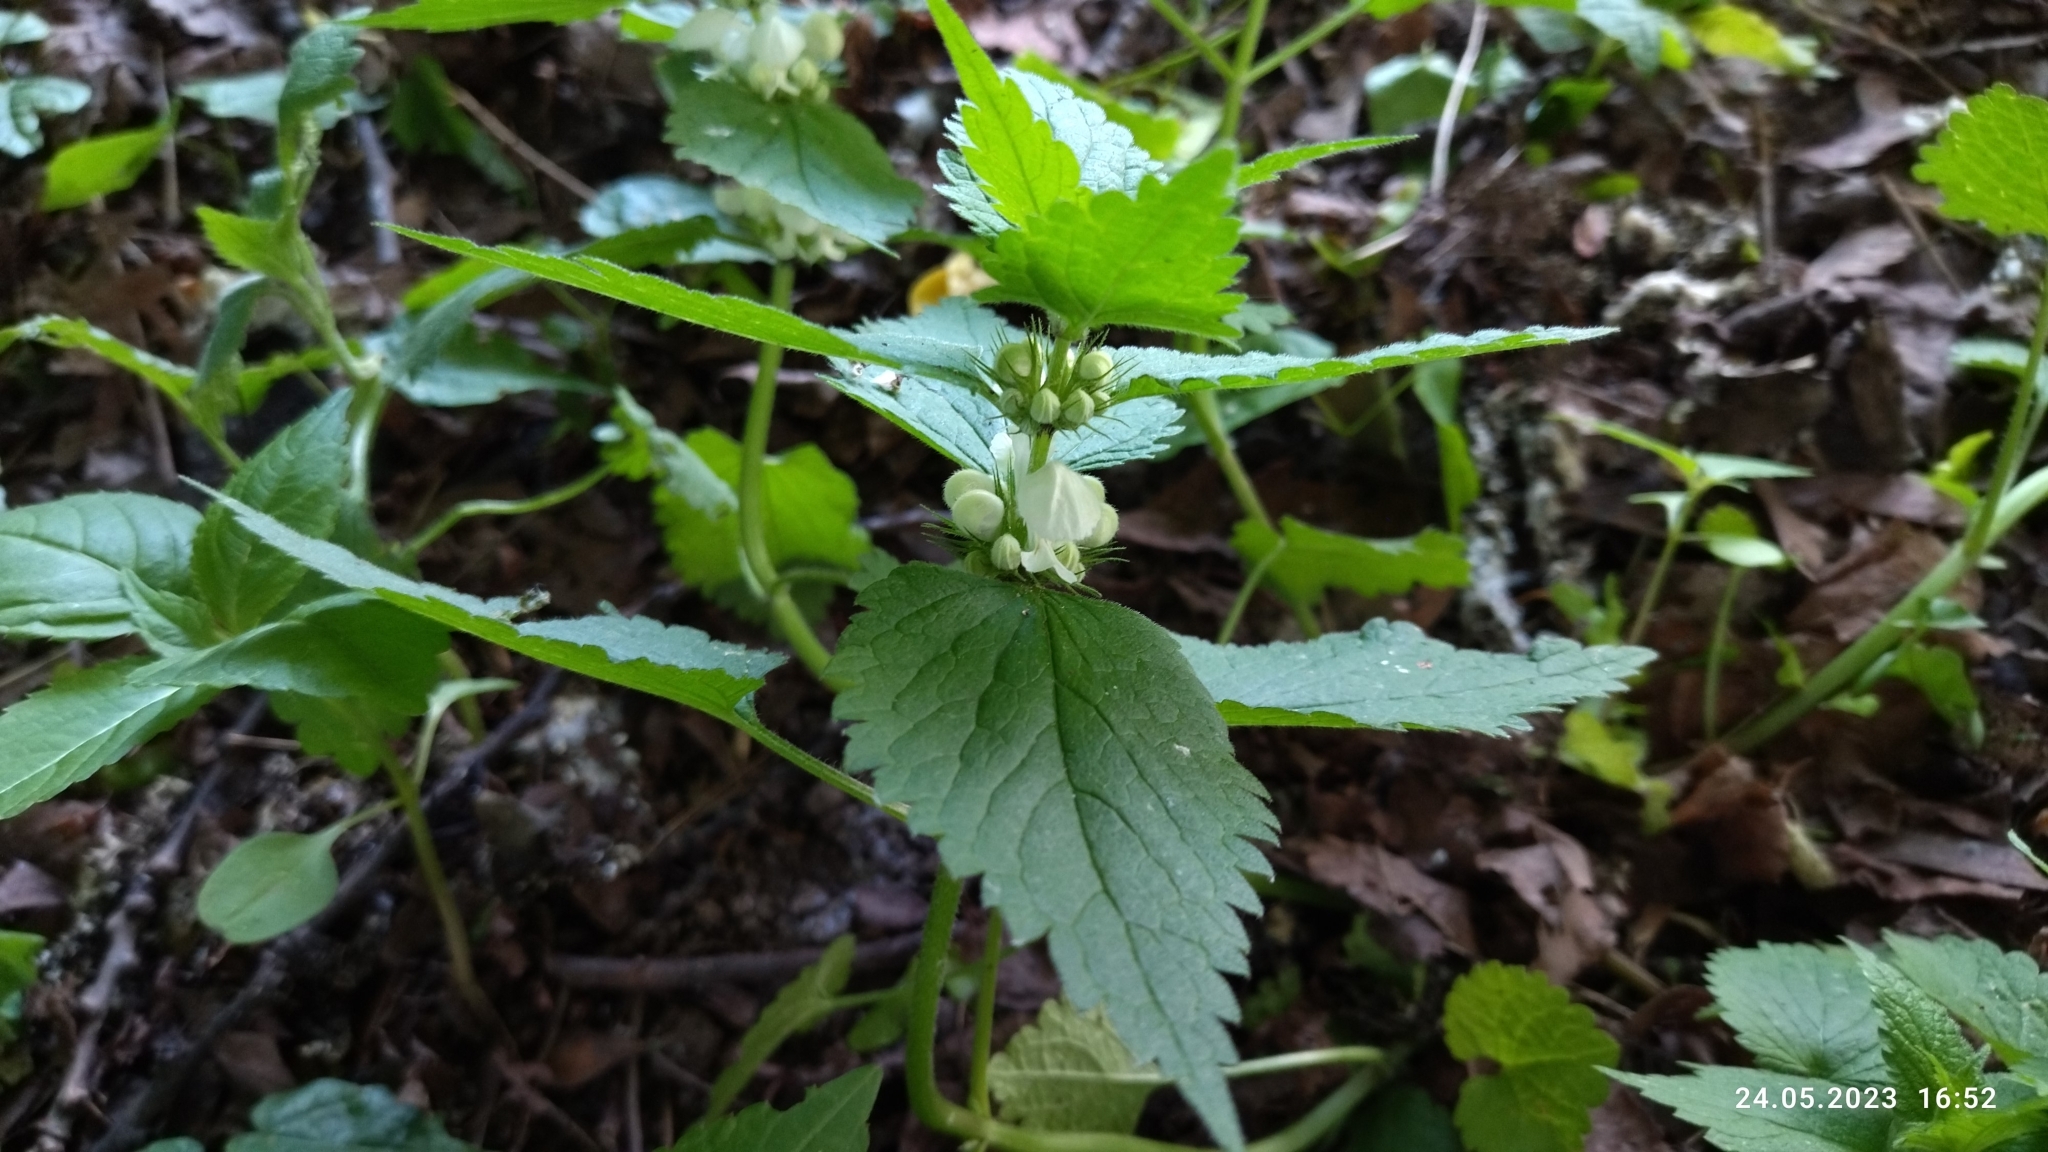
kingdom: Plantae
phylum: Tracheophyta
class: Magnoliopsida
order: Lamiales
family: Lamiaceae
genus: Lamium
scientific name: Lamium album
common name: White dead-nettle
